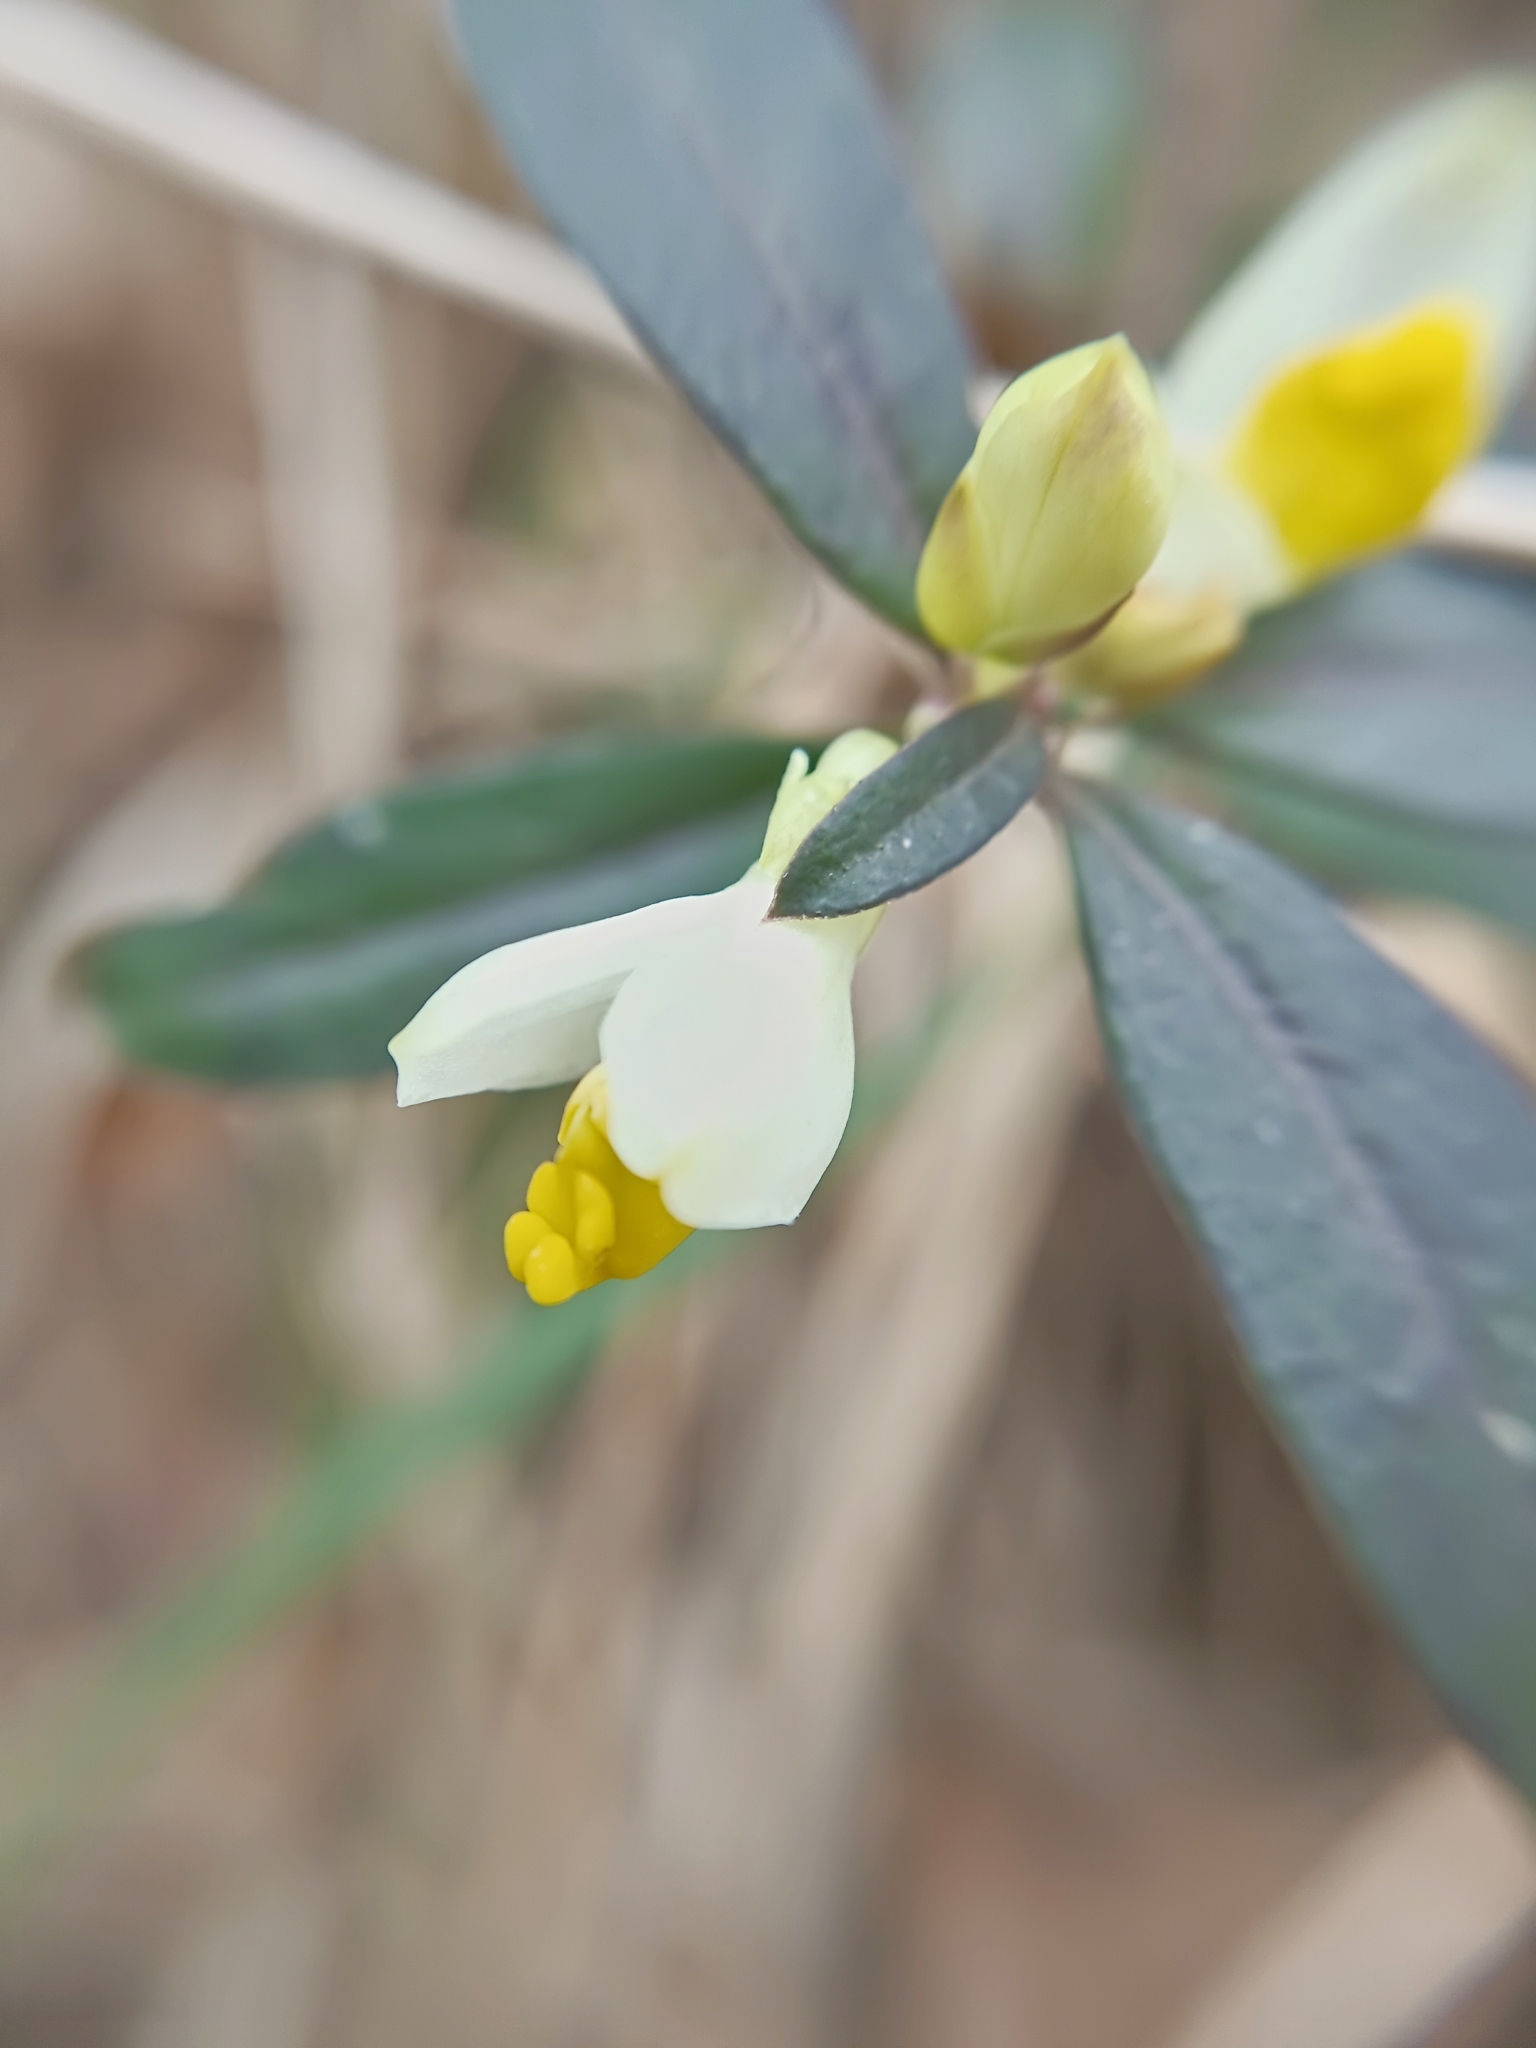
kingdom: Plantae
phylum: Tracheophyta
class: Magnoliopsida
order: Fabales
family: Polygalaceae
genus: Polygaloides
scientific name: Polygaloides chamaebuxus
